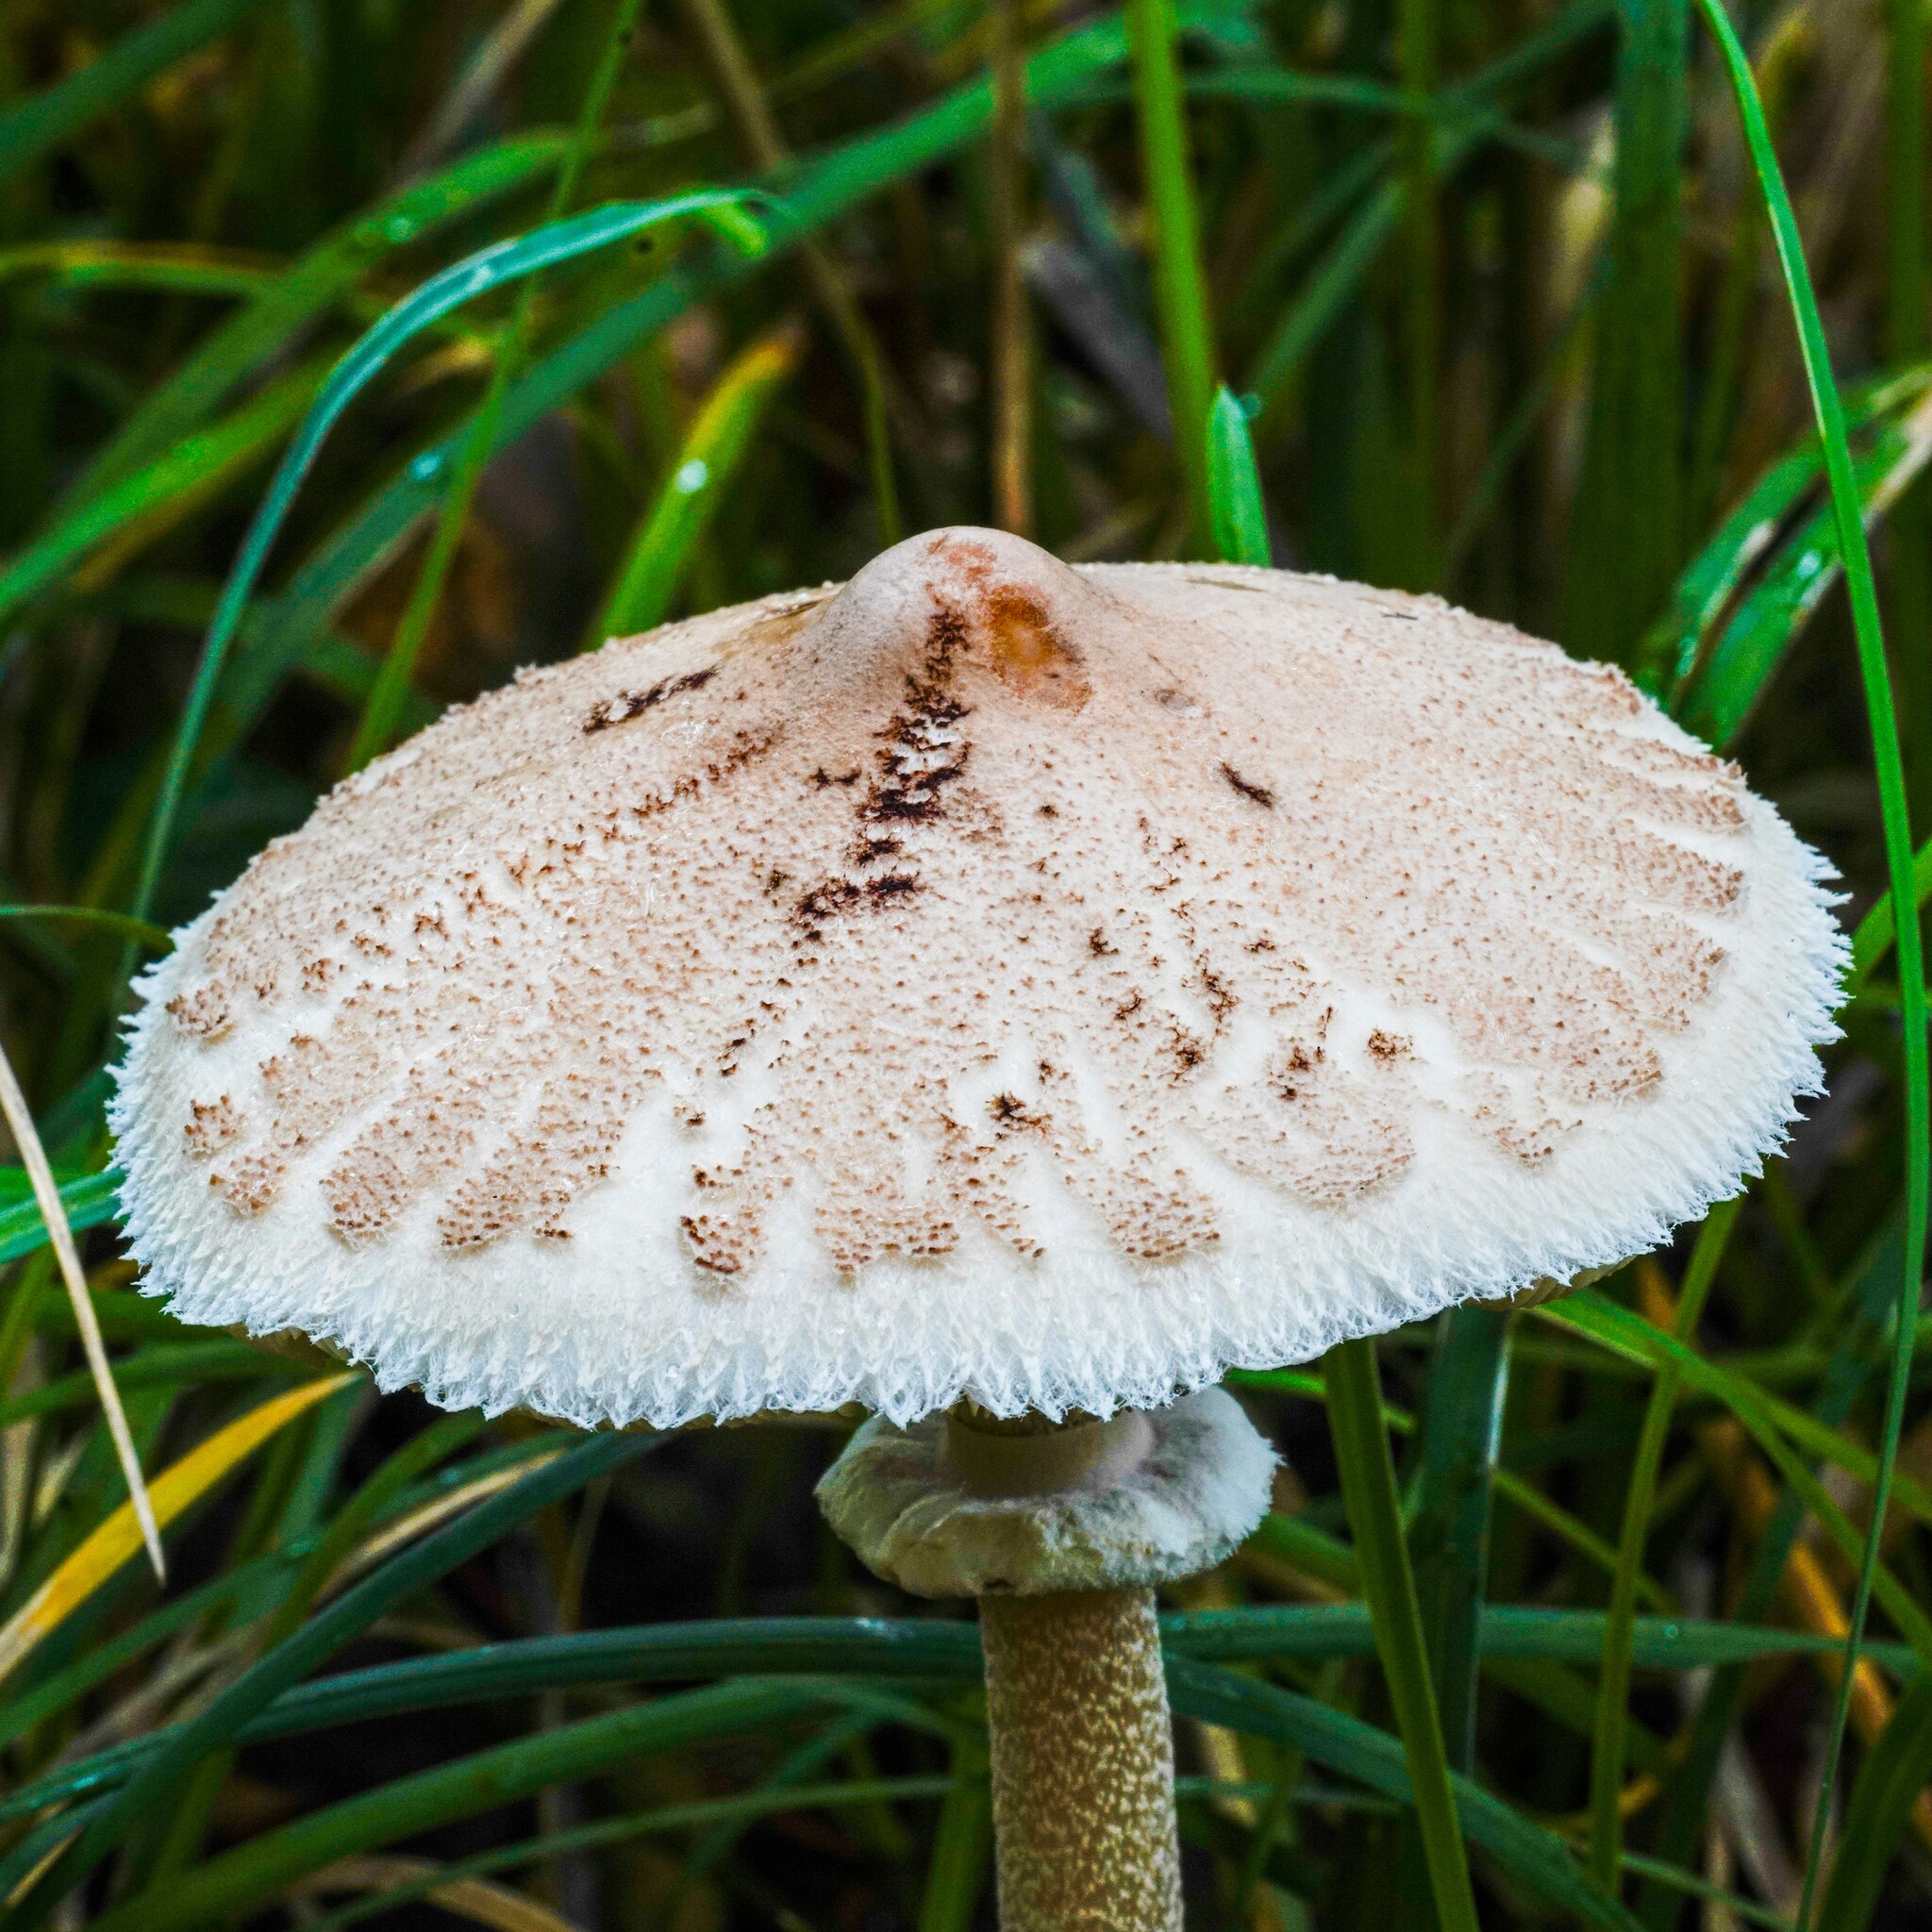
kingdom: Fungi
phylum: Basidiomycota
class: Agaricomycetes
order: Agaricales
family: Agaricaceae
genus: Macrolepiota
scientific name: Macrolepiota mastoidea
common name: Slender parasol
